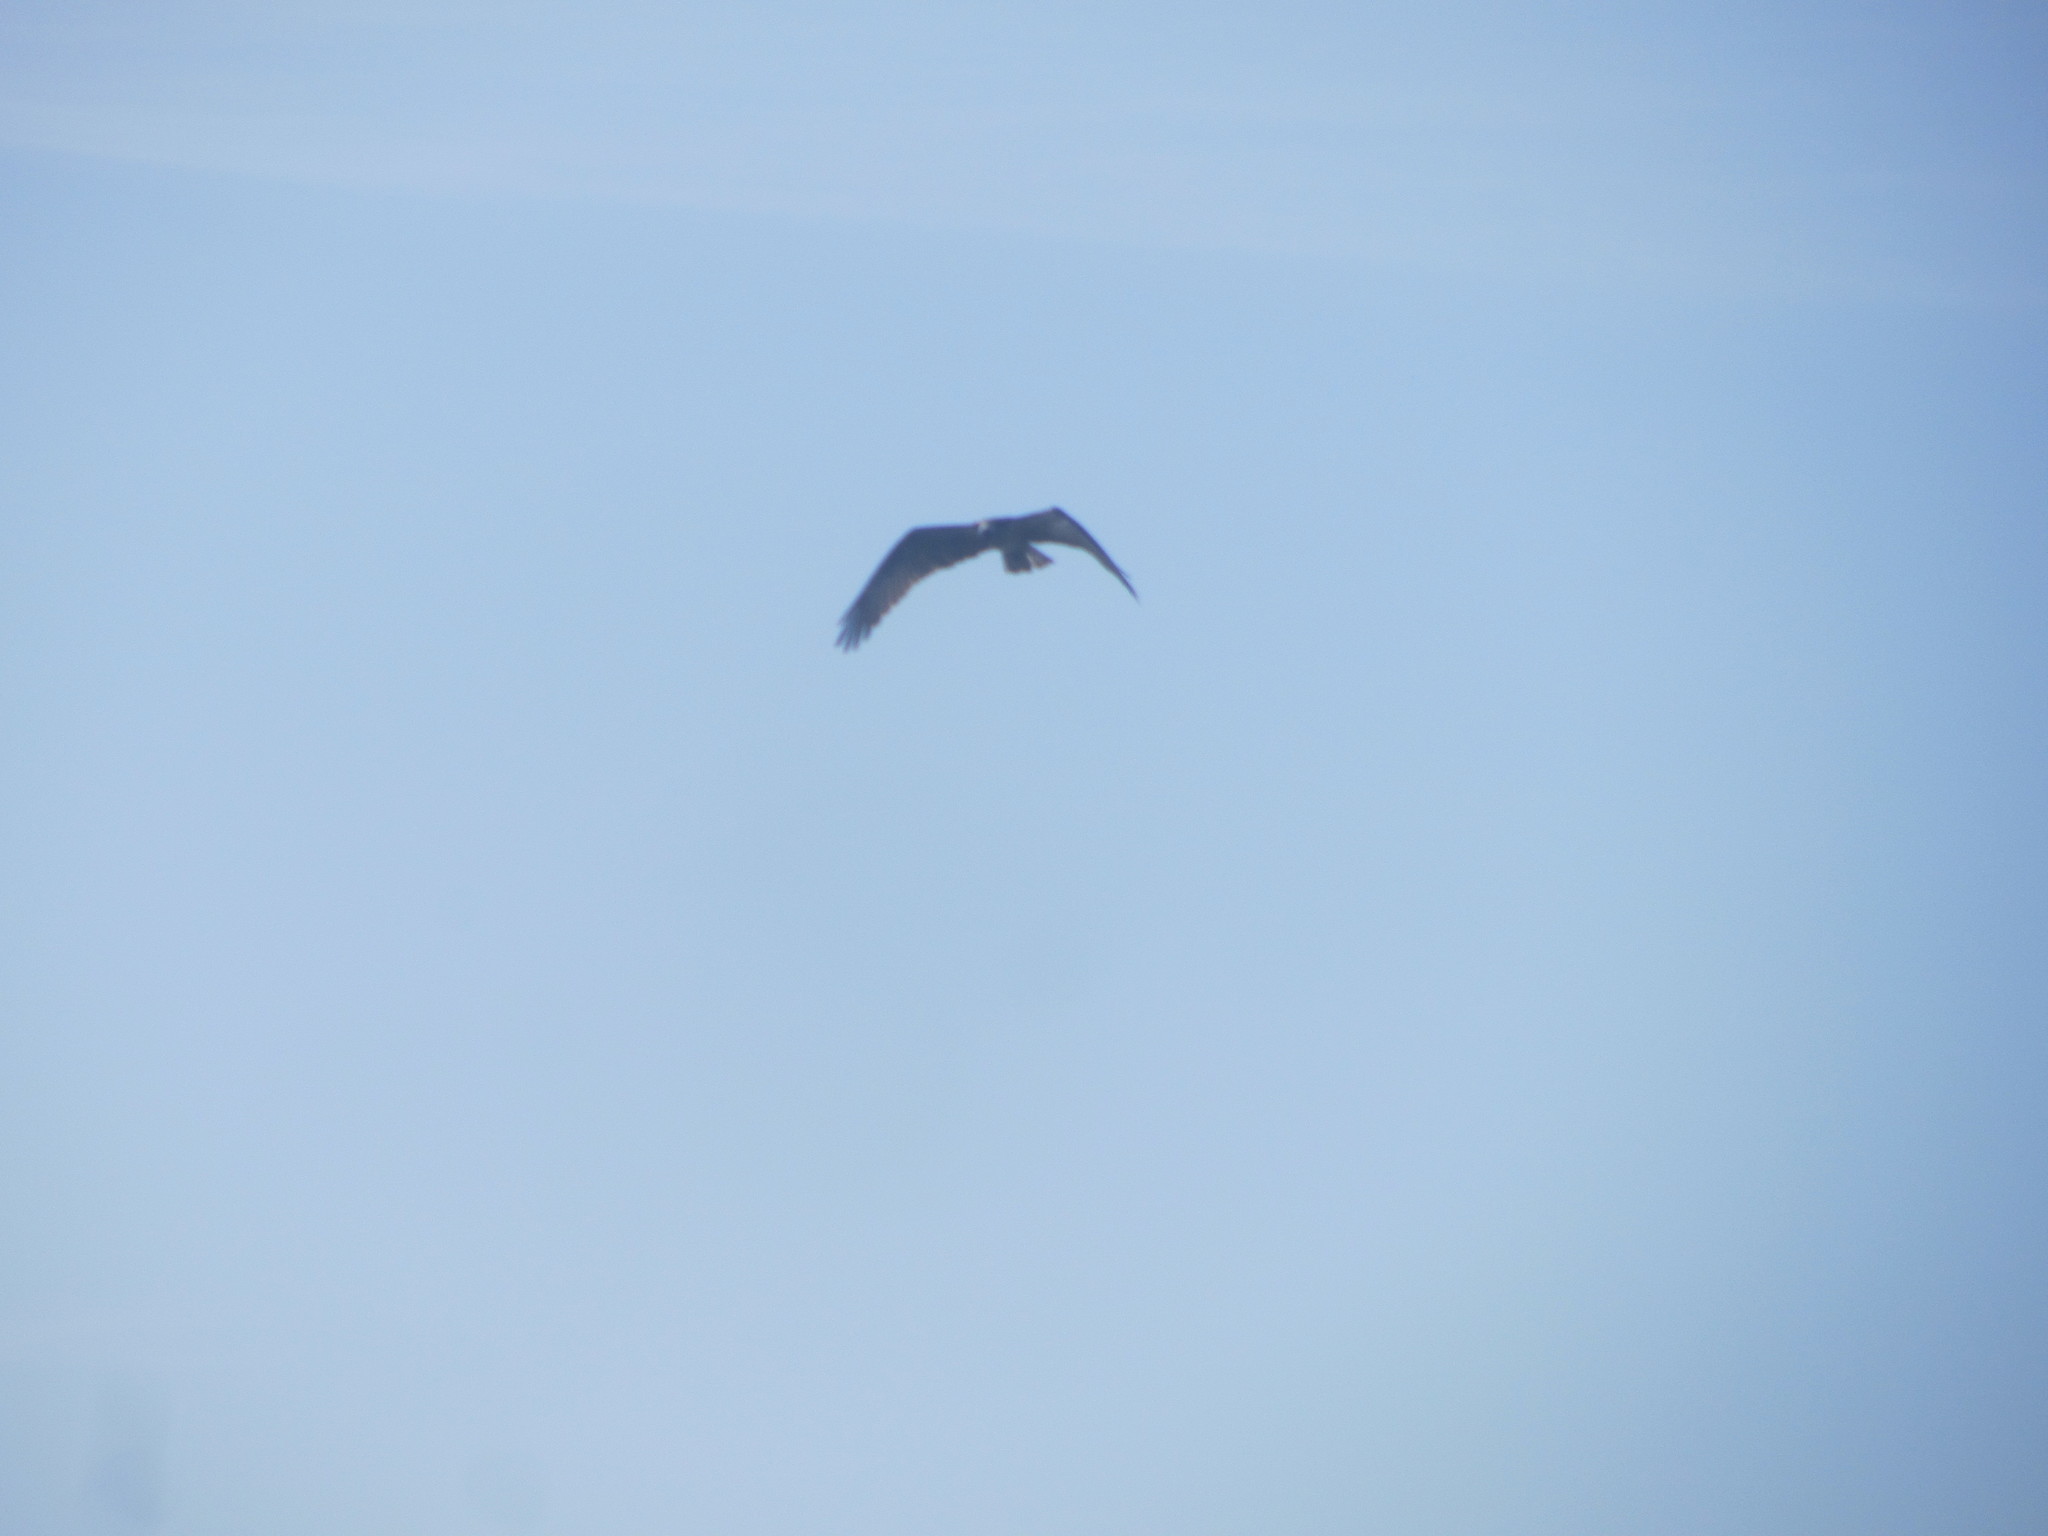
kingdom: Animalia
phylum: Chordata
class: Aves
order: Accipitriformes
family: Pandionidae
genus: Pandion
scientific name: Pandion haliaetus
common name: Osprey
